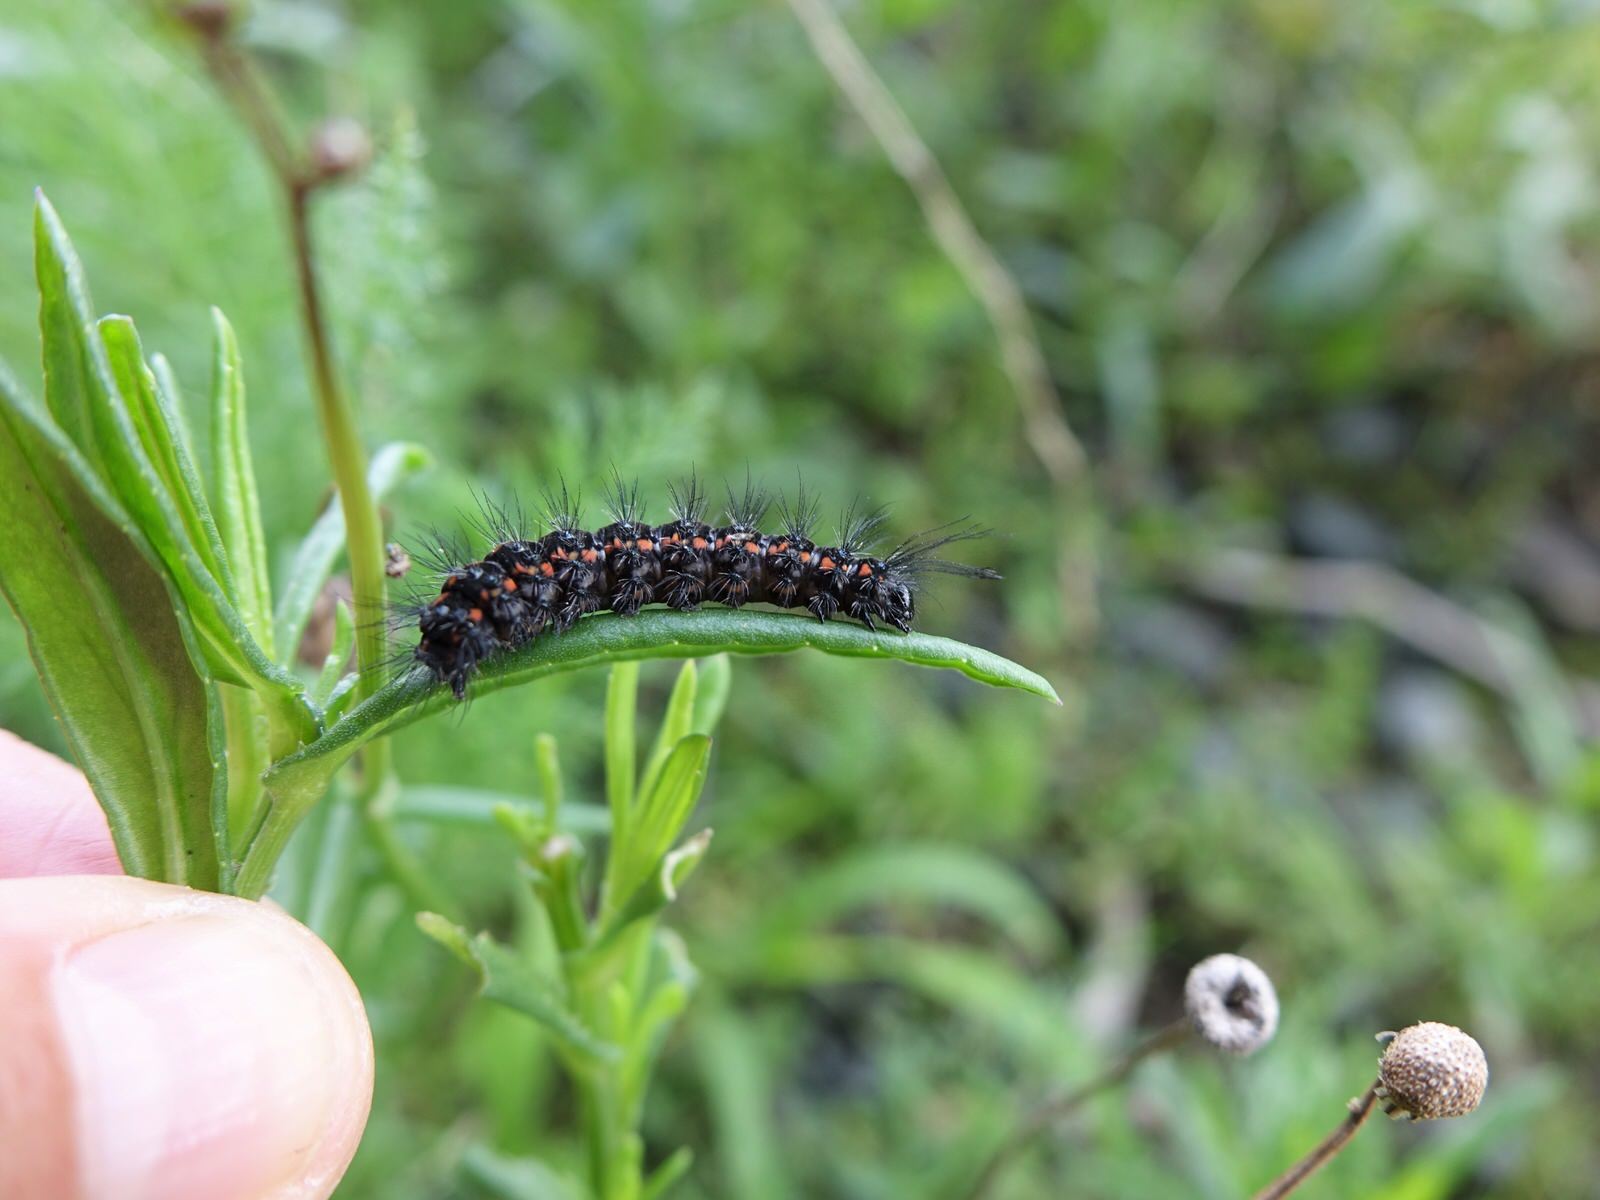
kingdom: Animalia
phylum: Arthropoda
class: Insecta
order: Lepidoptera
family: Erebidae
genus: Nyctemera
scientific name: Nyctemera amicus
